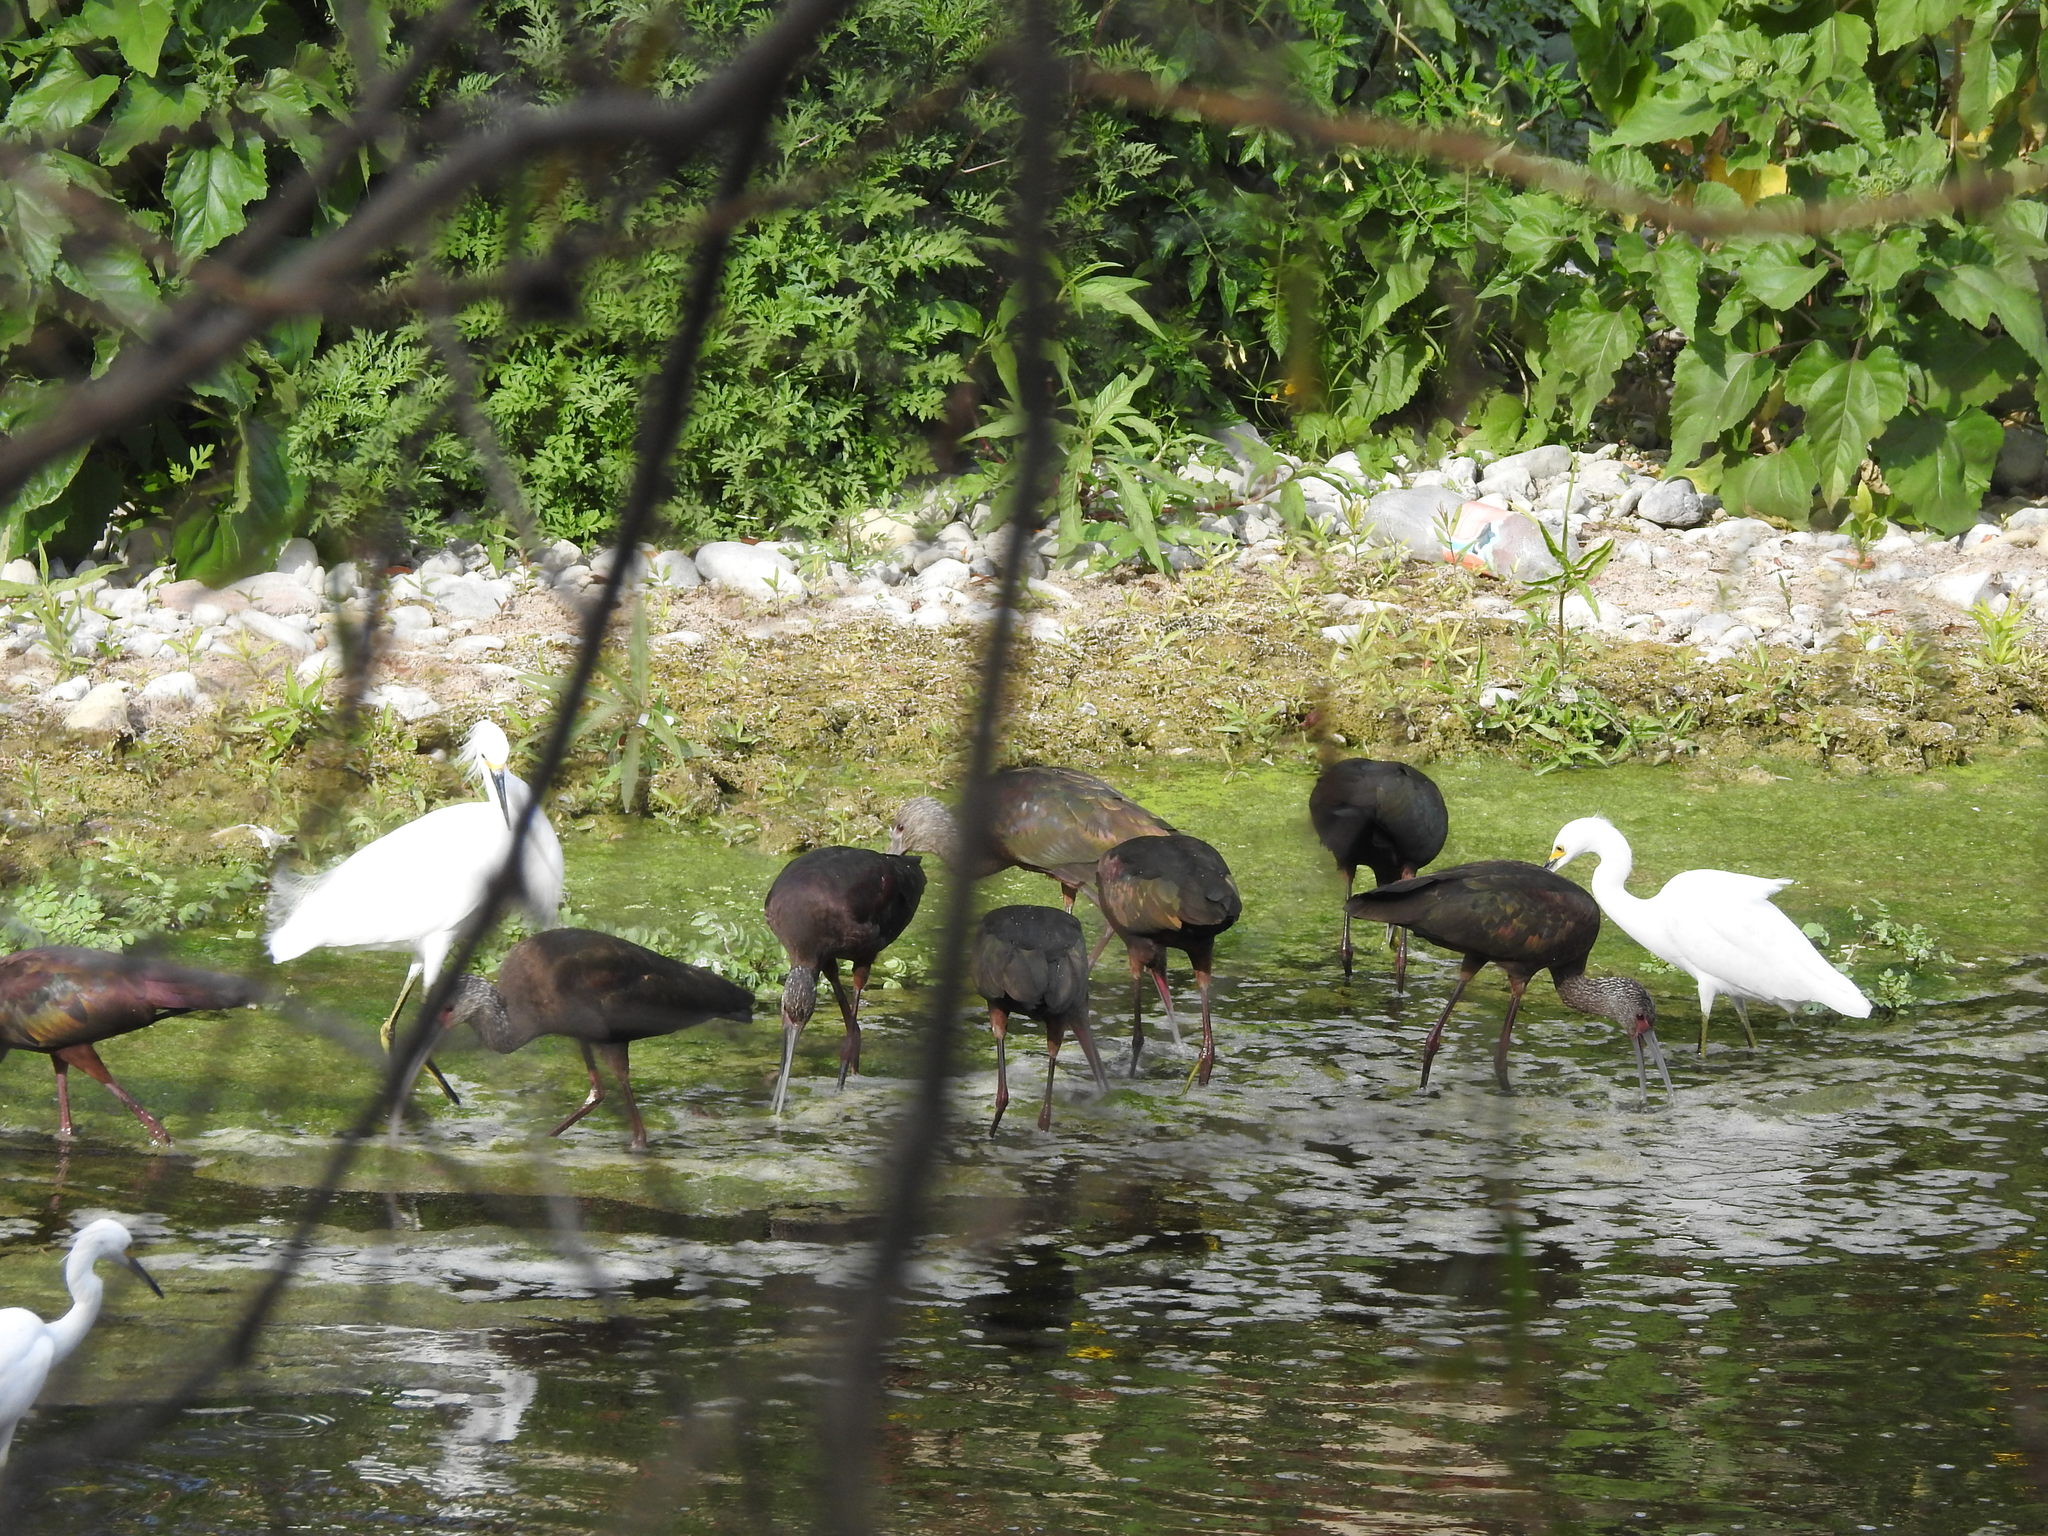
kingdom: Animalia
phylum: Chordata
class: Aves
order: Pelecaniformes
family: Threskiornithidae
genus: Plegadis
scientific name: Plegadis chihi
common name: White-faced ibis
